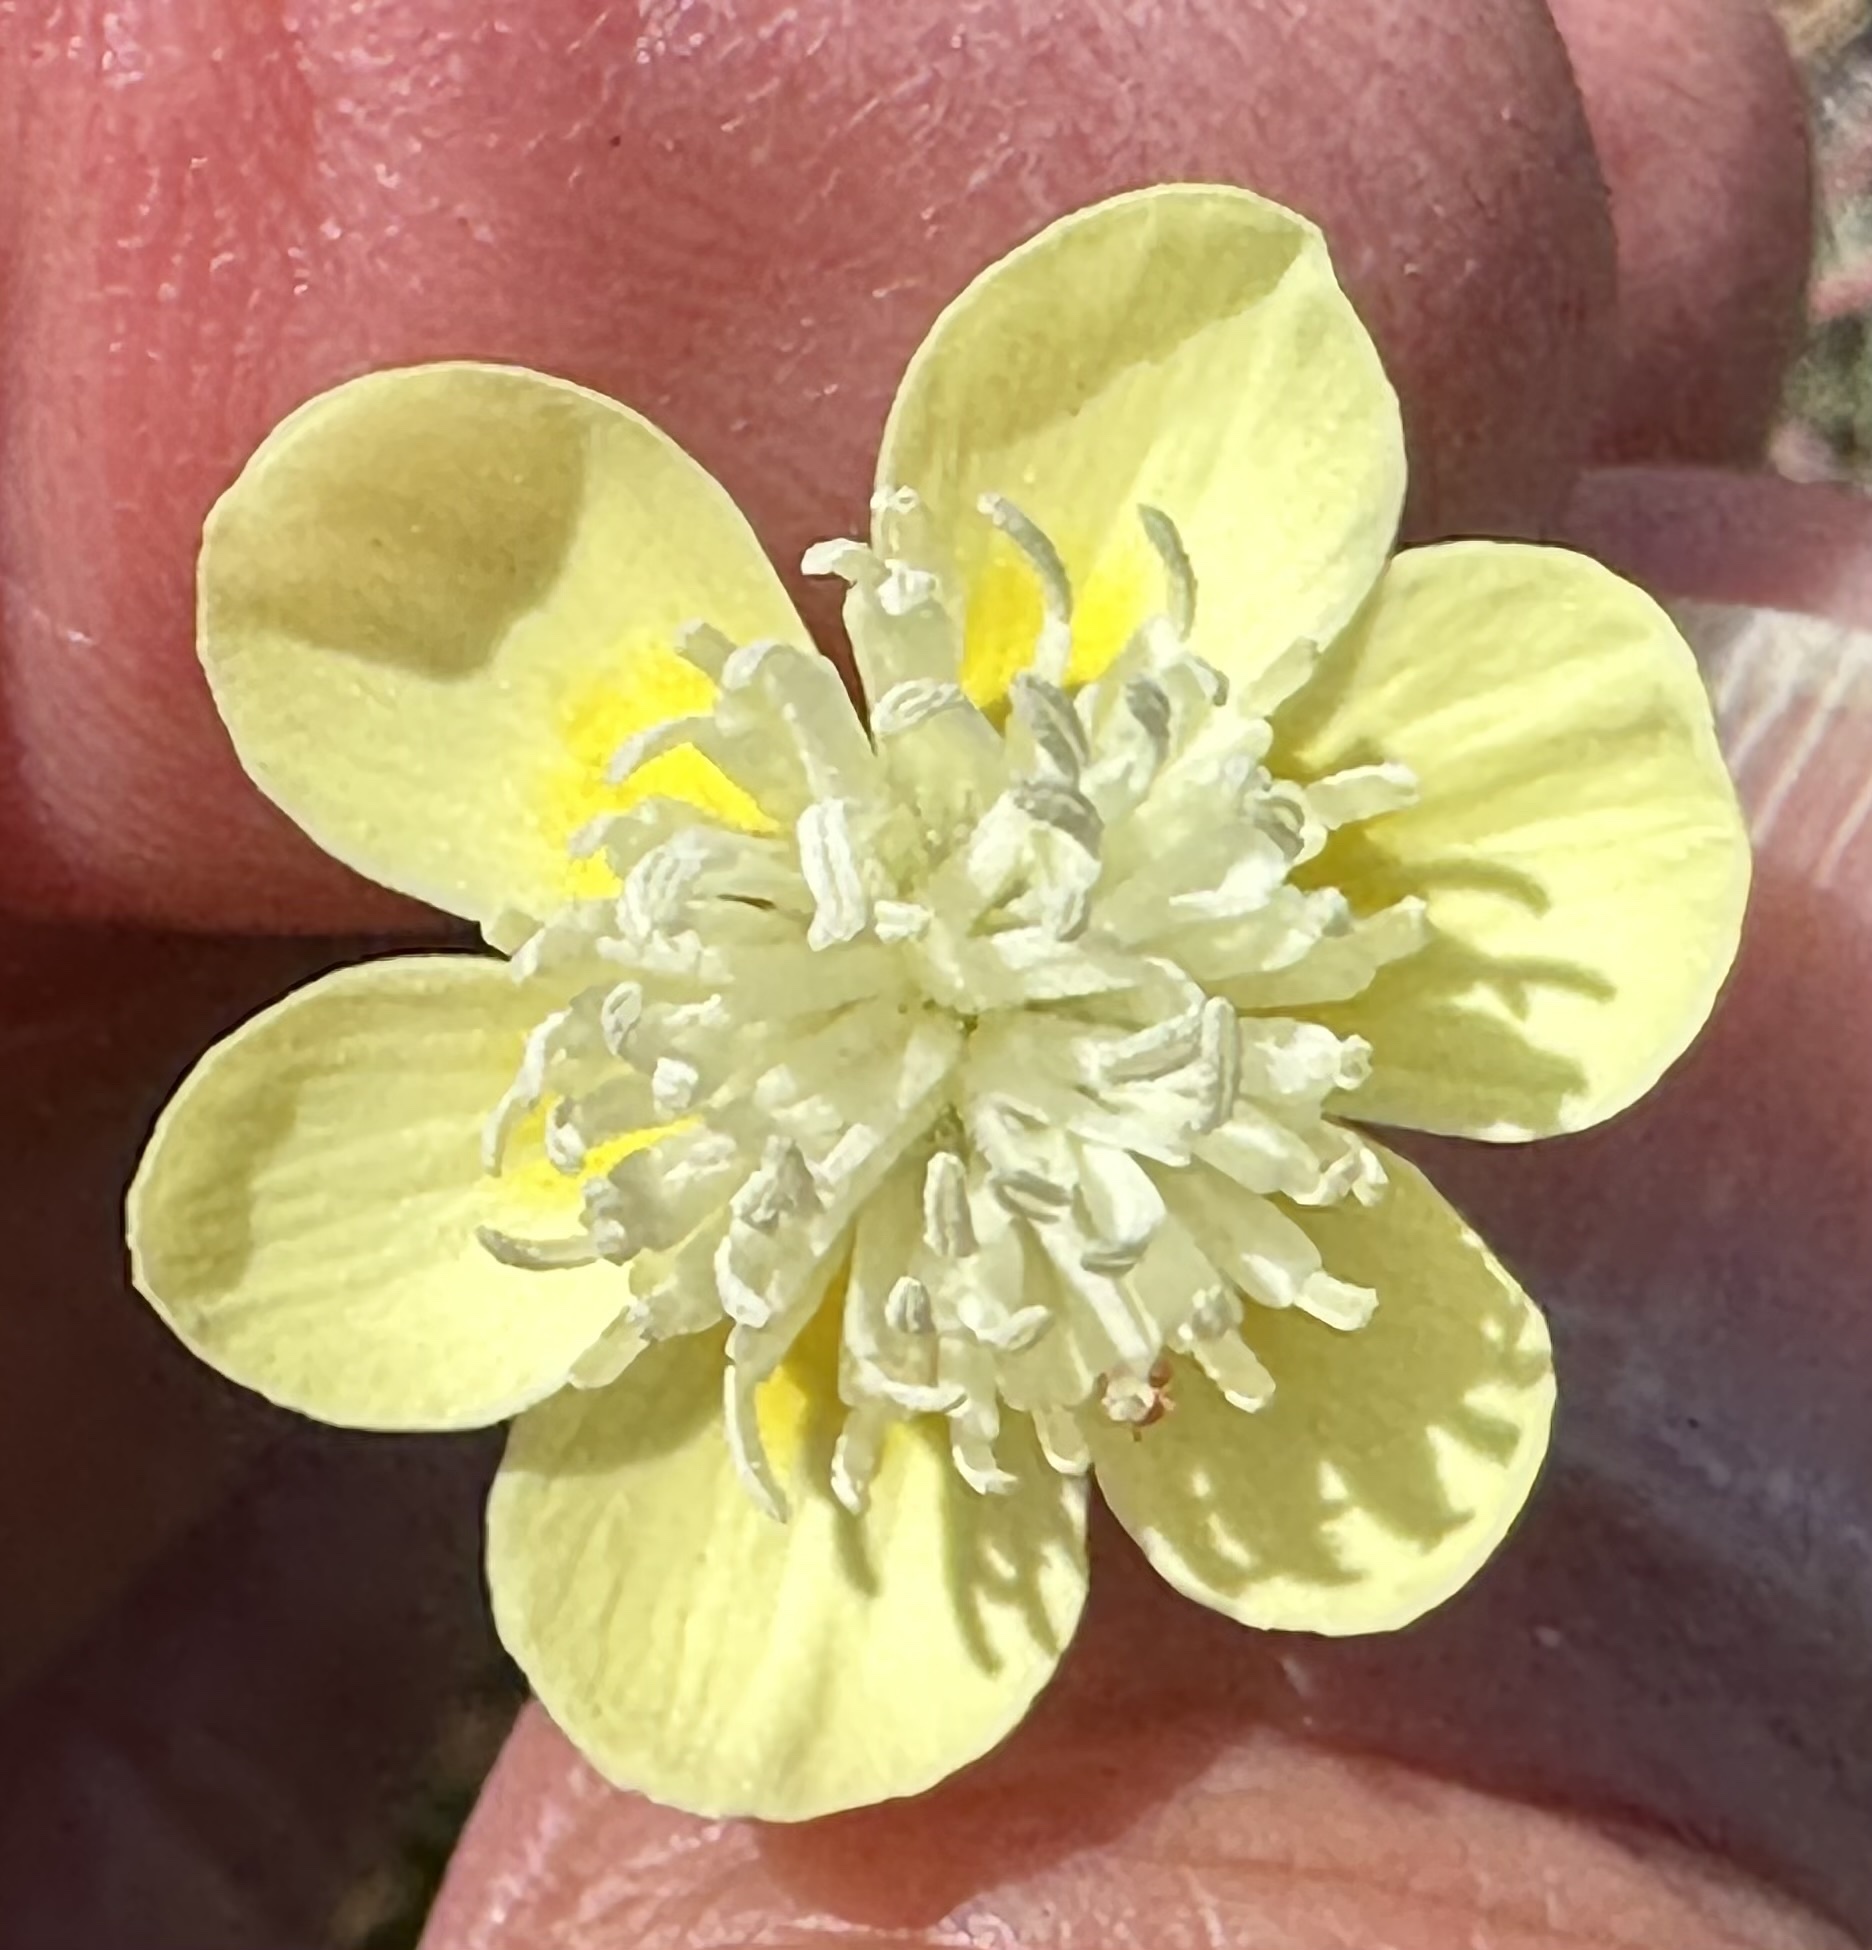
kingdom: Plantae
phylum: Tracheophyta
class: Magnoliopsida
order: Ranunculales
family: Papaveraceae
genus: Platystemon
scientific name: Platystemon californicus
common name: Cream-cups
